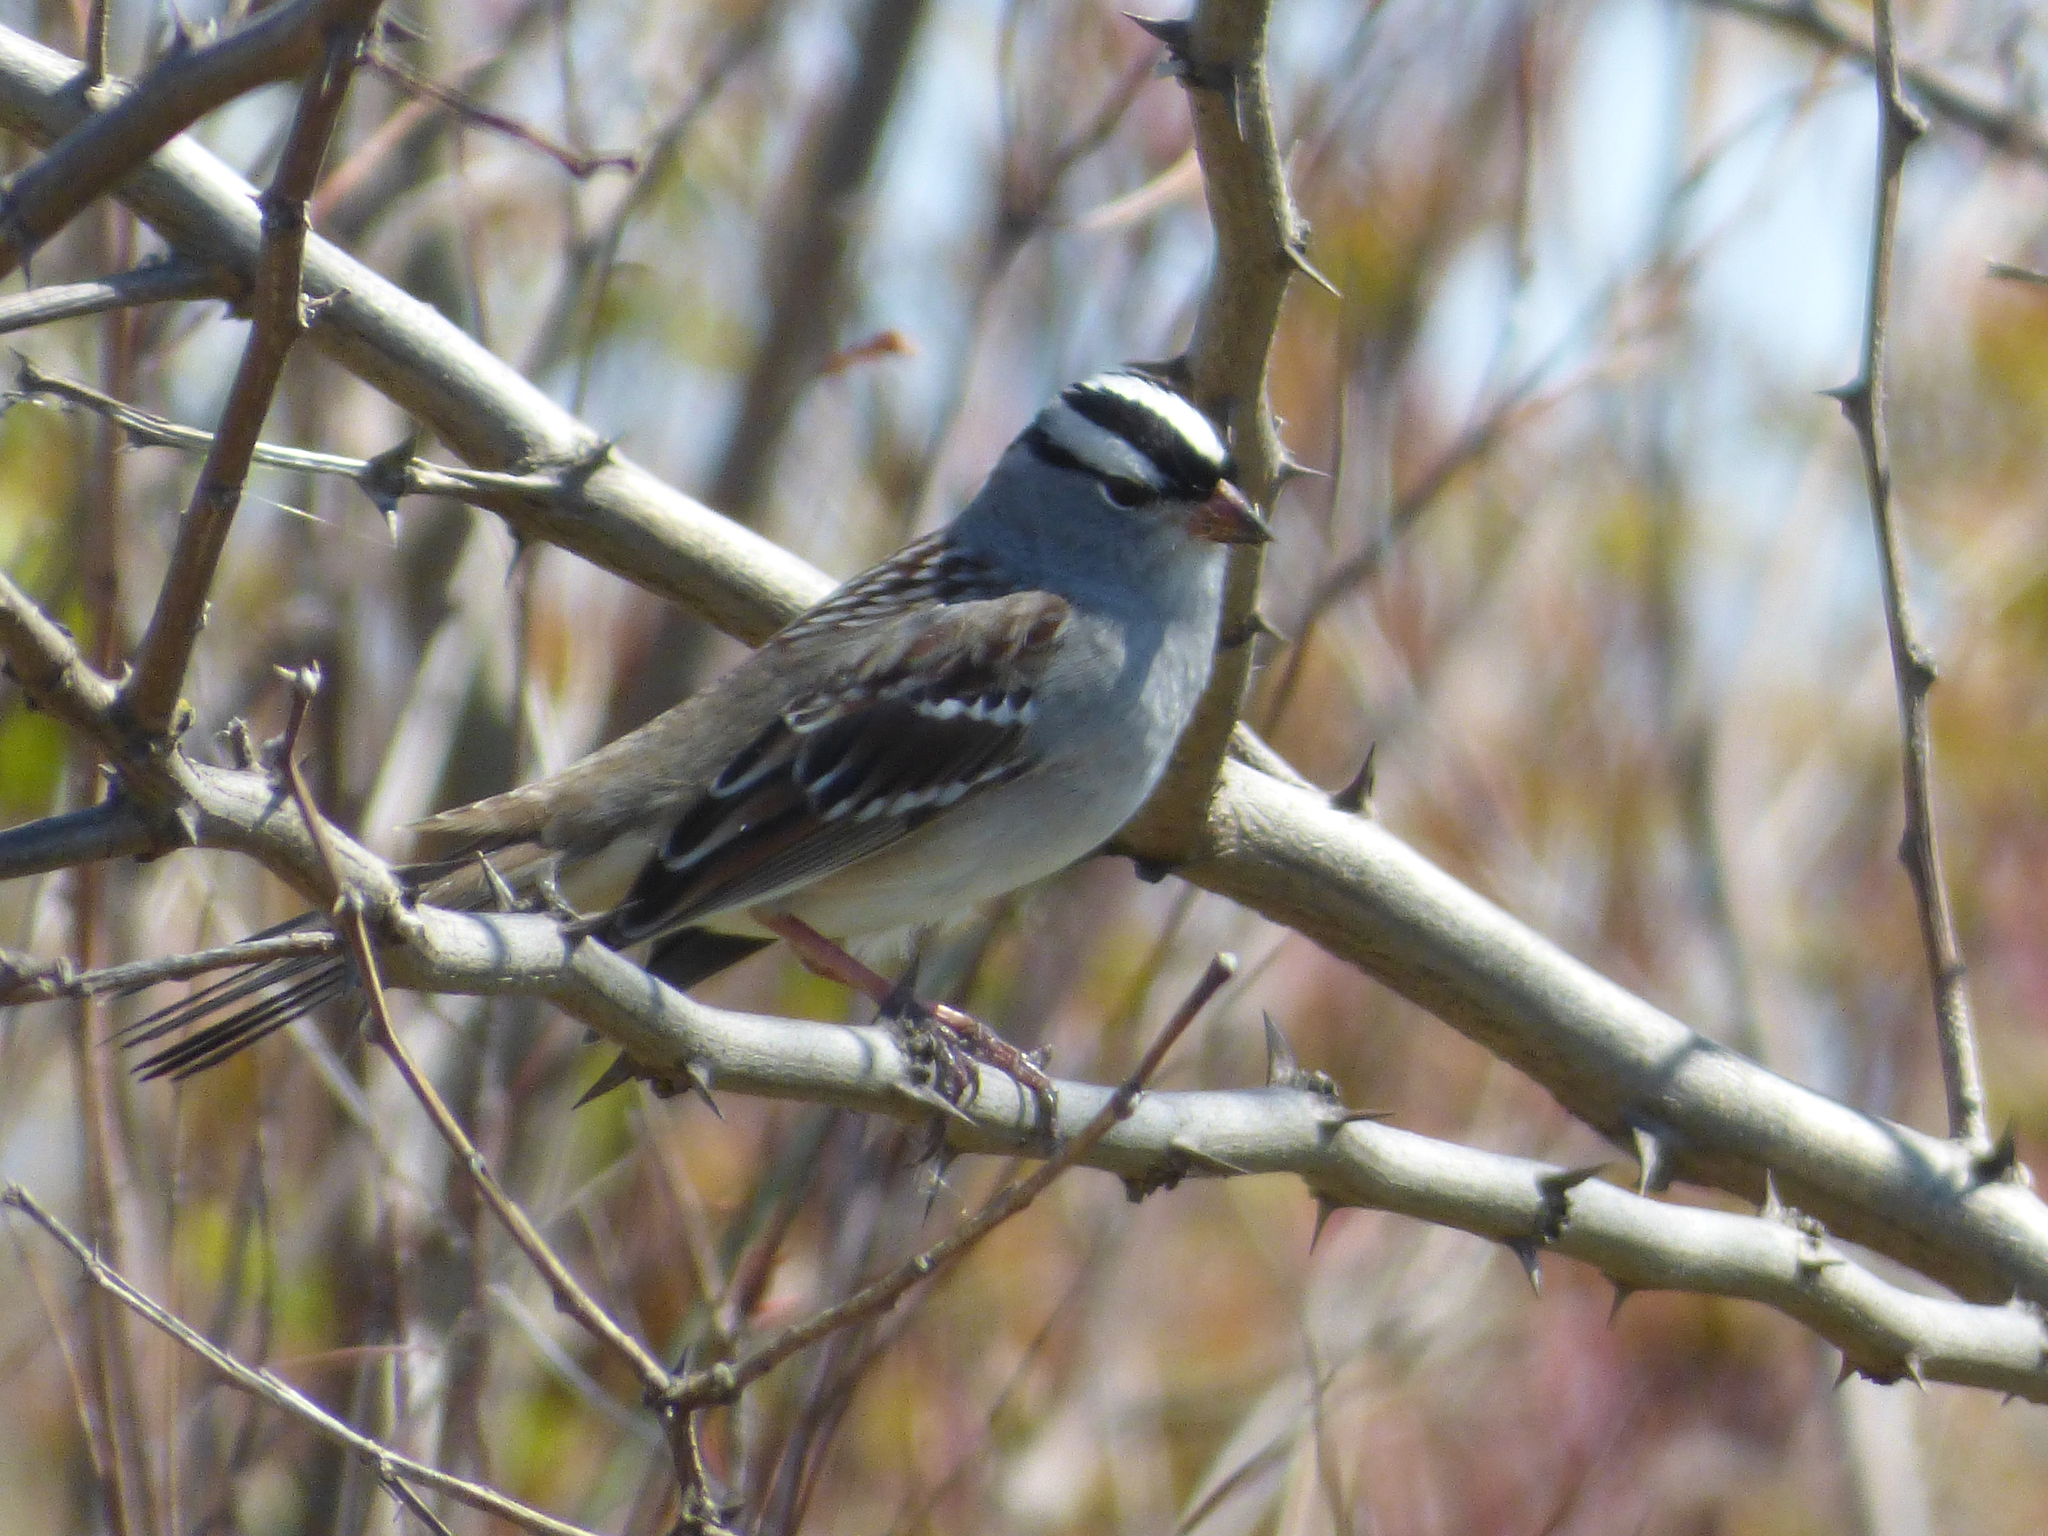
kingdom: Animalia
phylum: Chordata
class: Aves
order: Passeriformes
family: Passerellidae
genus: Zonotrichia
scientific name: Zonotrichia leucophrys
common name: White-crowned sparrow
